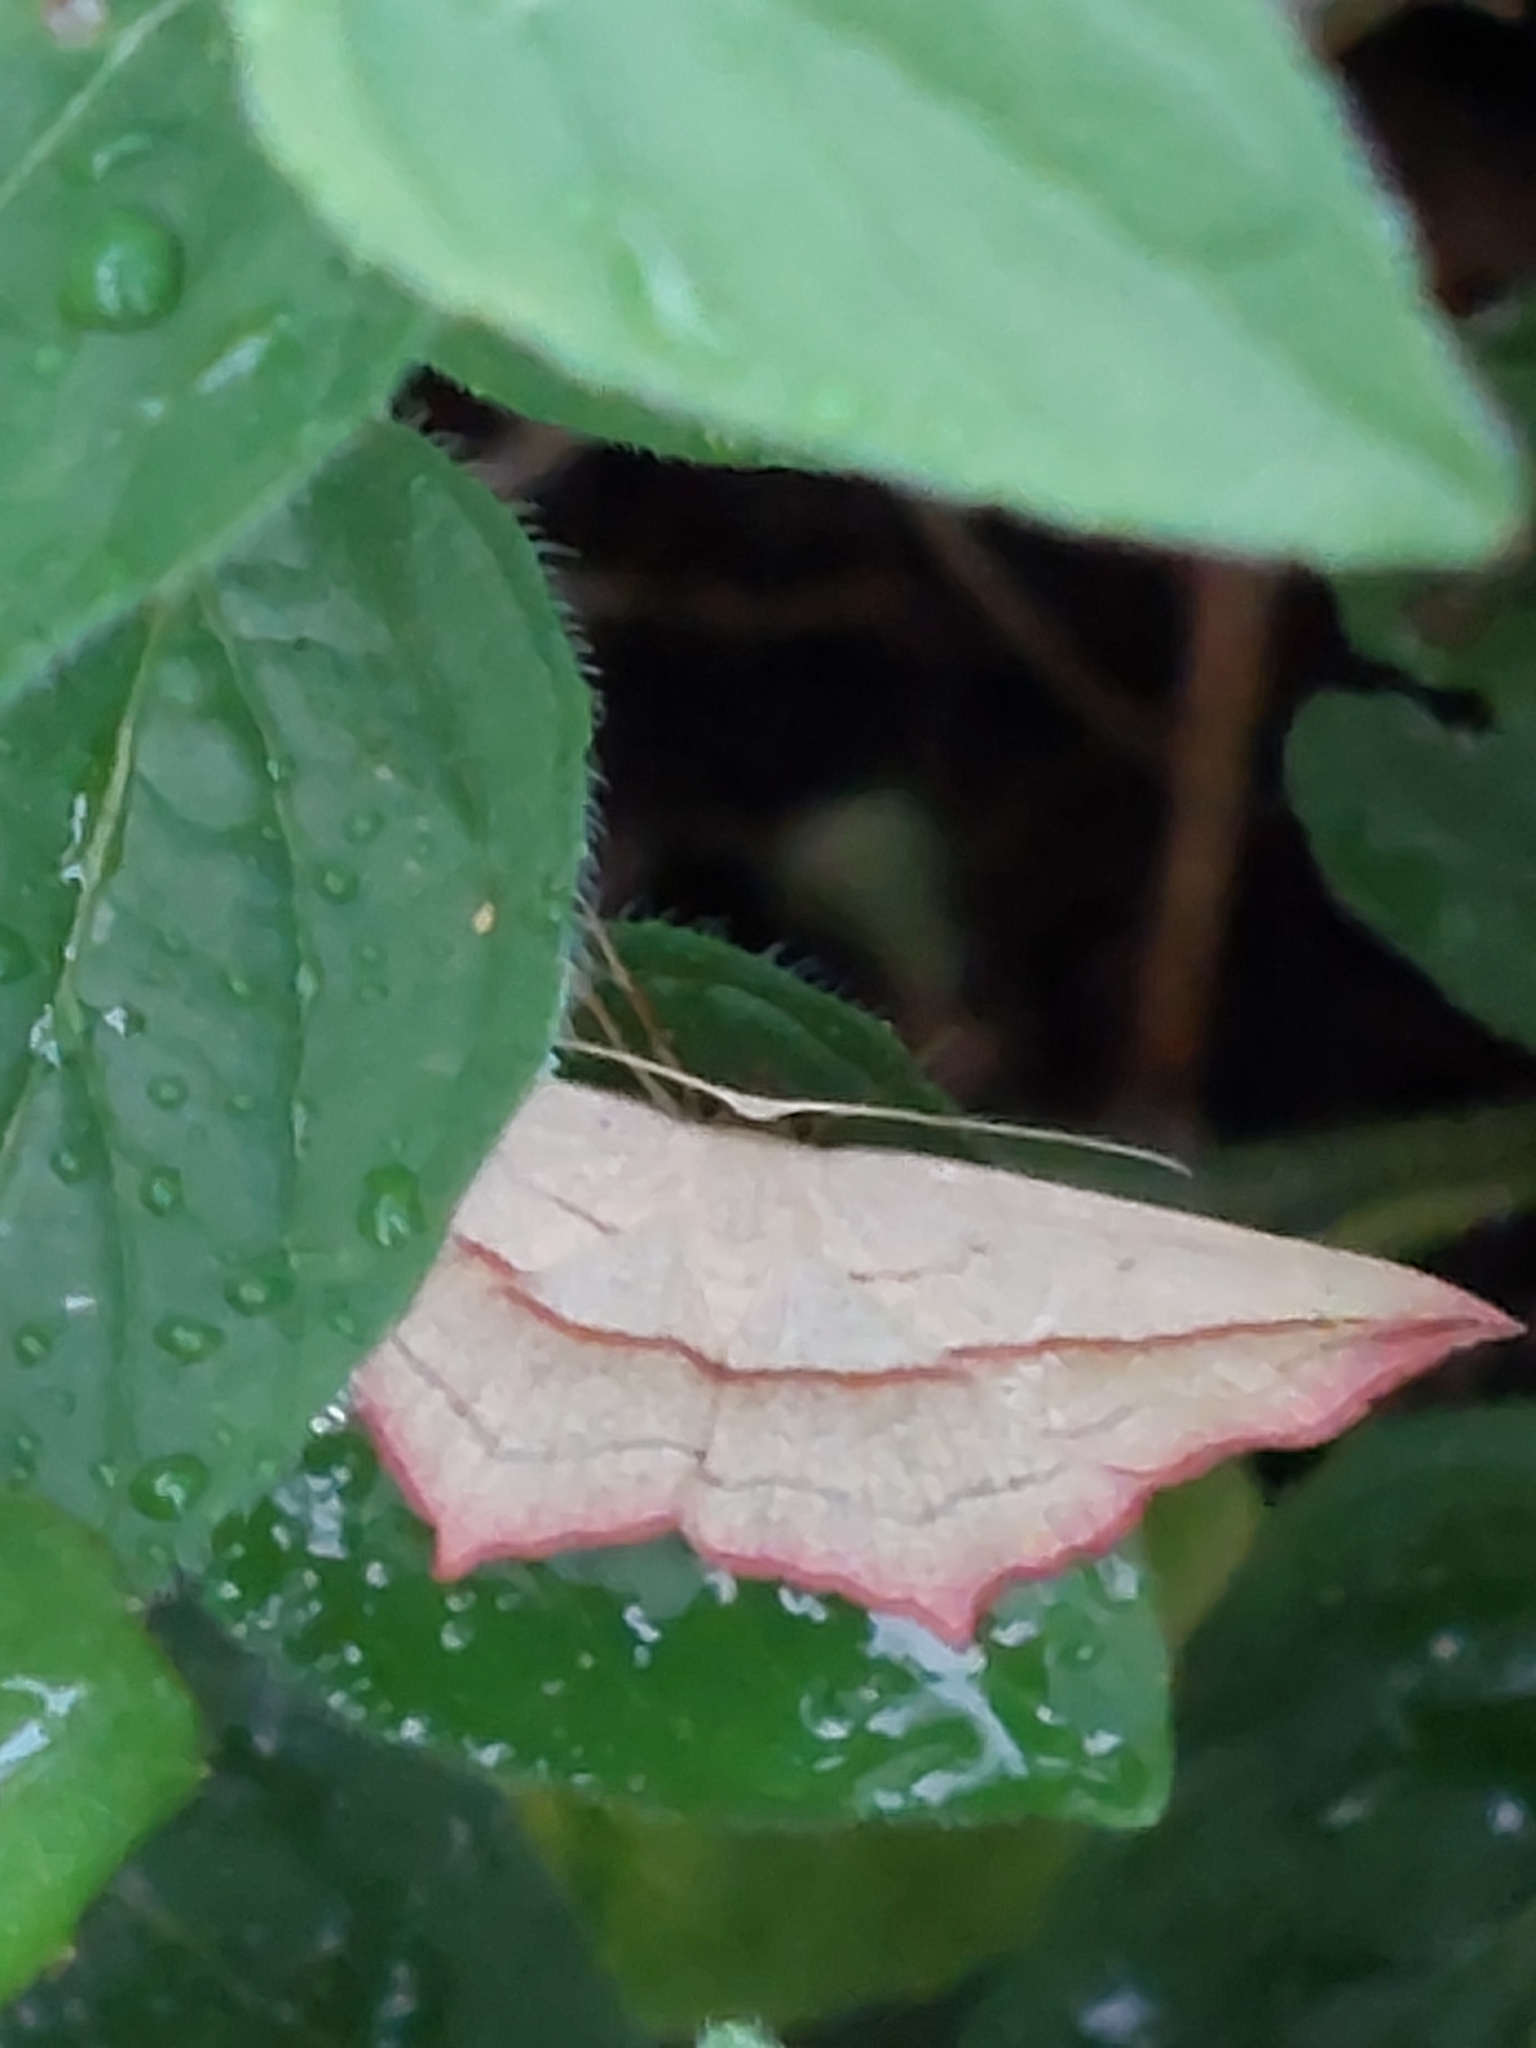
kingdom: Animalia
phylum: Arthropoda
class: Insecta
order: Lepidoptera
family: Geometridae
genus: Timandra
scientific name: Timandra comae
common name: Blood-vein
